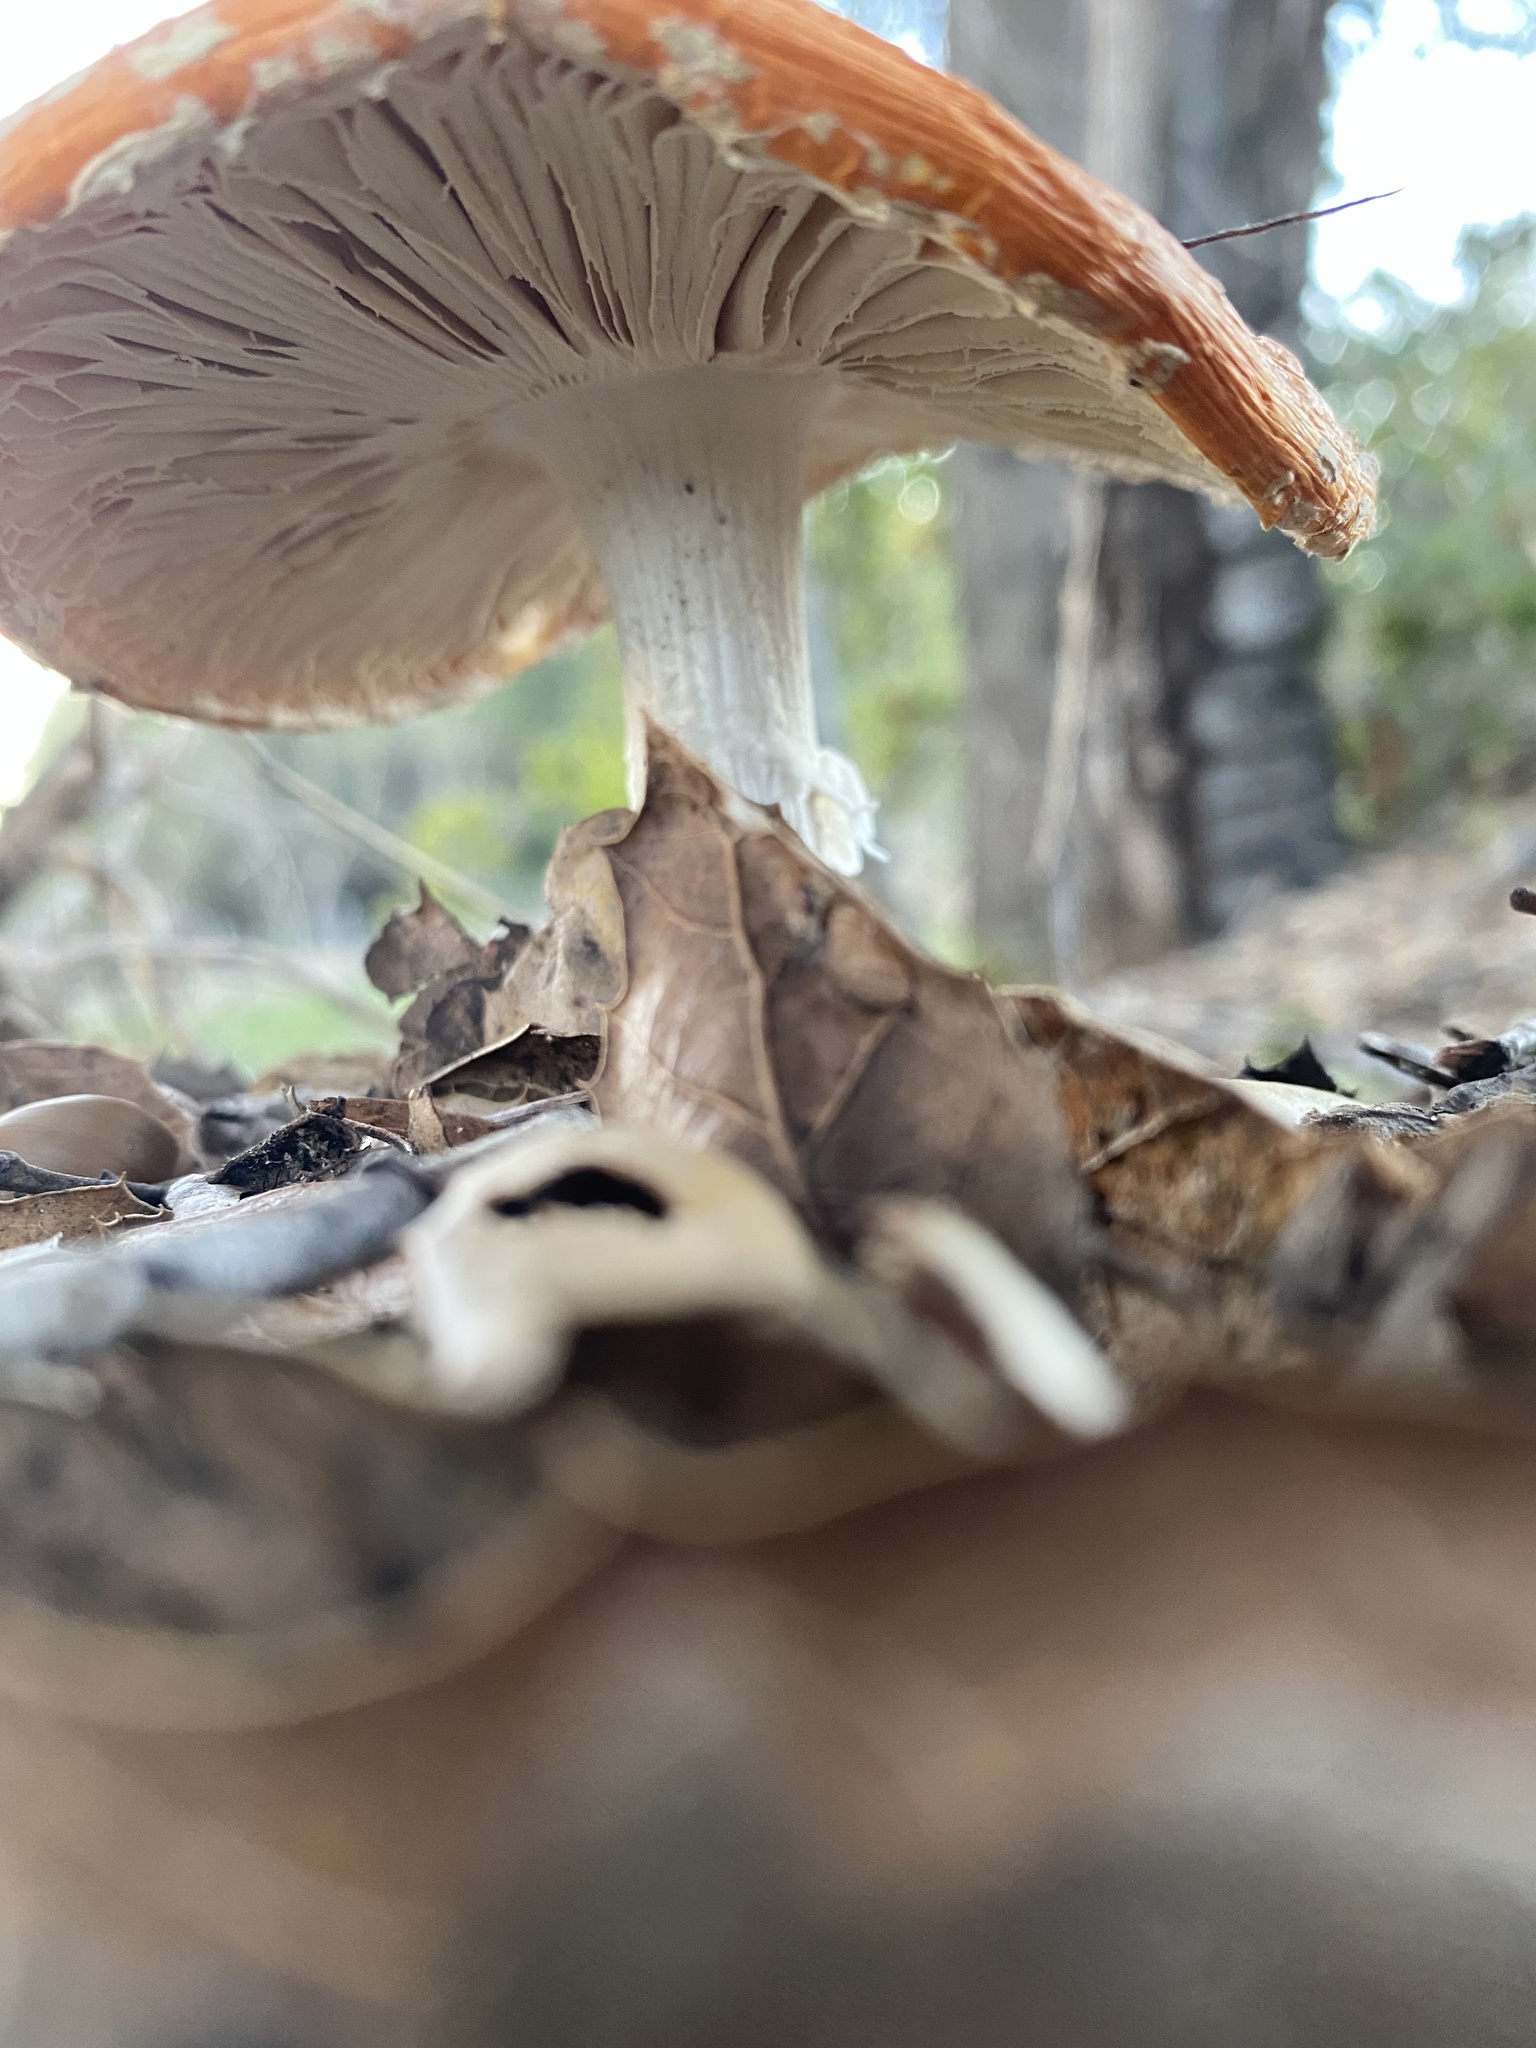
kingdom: Fungi
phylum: Basidiomycota
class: Agaricomycetes
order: Agaricales
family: Amanitaceae
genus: Amanita
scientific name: Amanita muscaria
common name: Fly agaric
